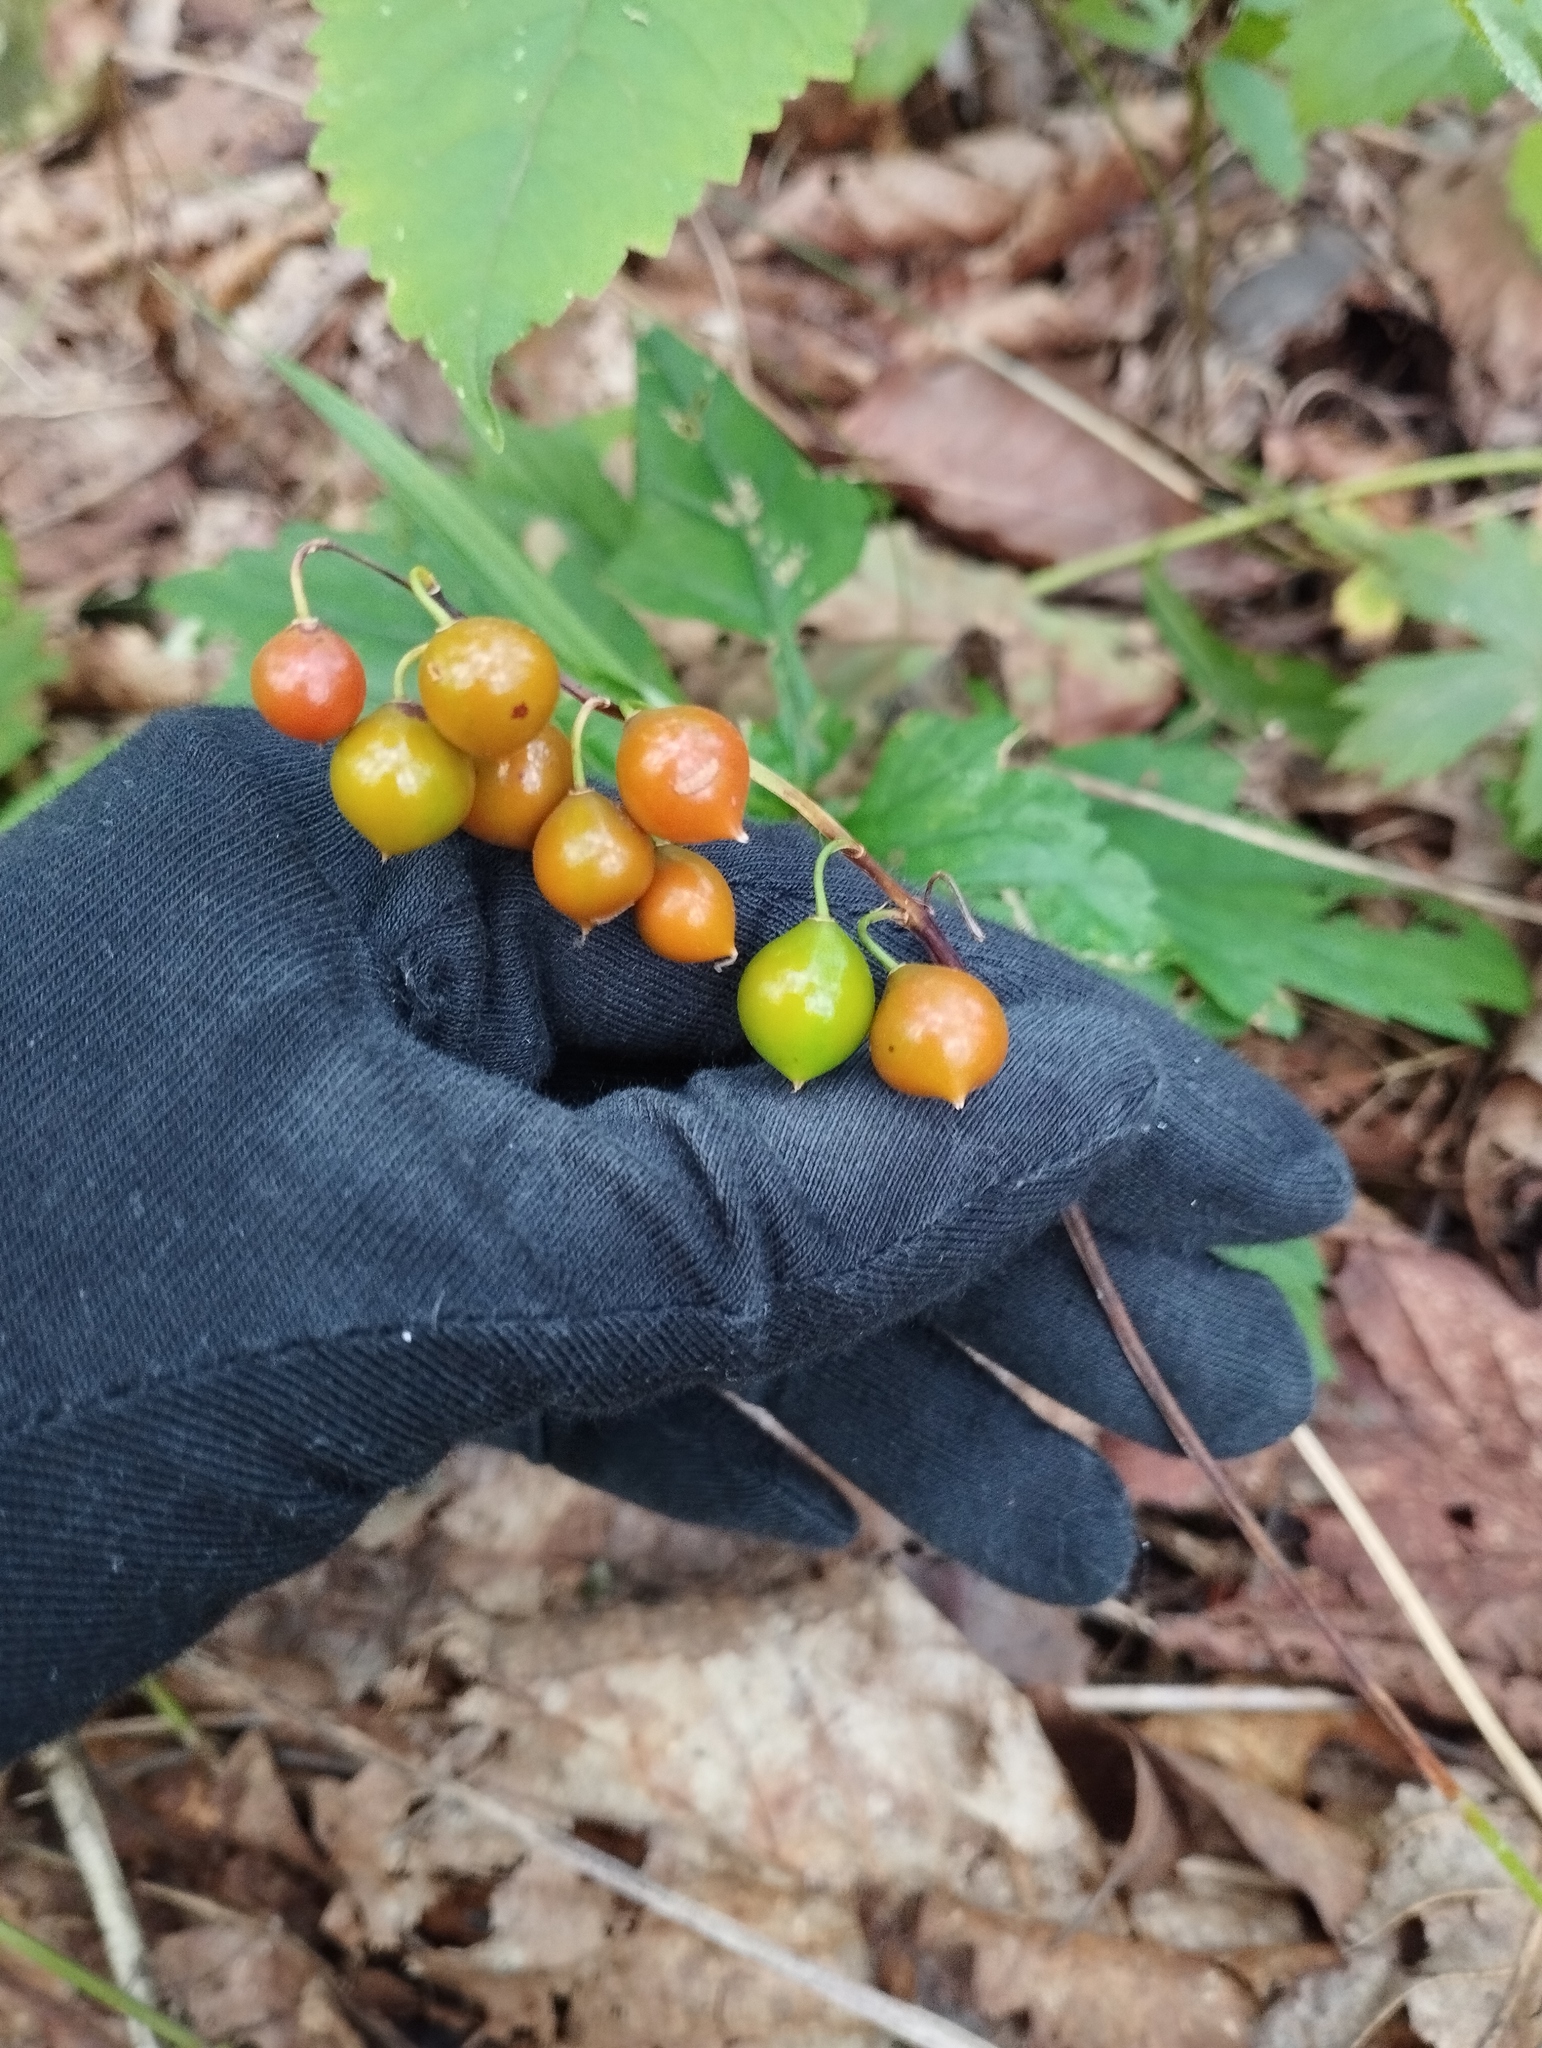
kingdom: Plantae
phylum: Tracheophyta
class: Liliopsida
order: Asparagales
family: Asparagaceae
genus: Convallaria
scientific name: Convallaria keiskei
